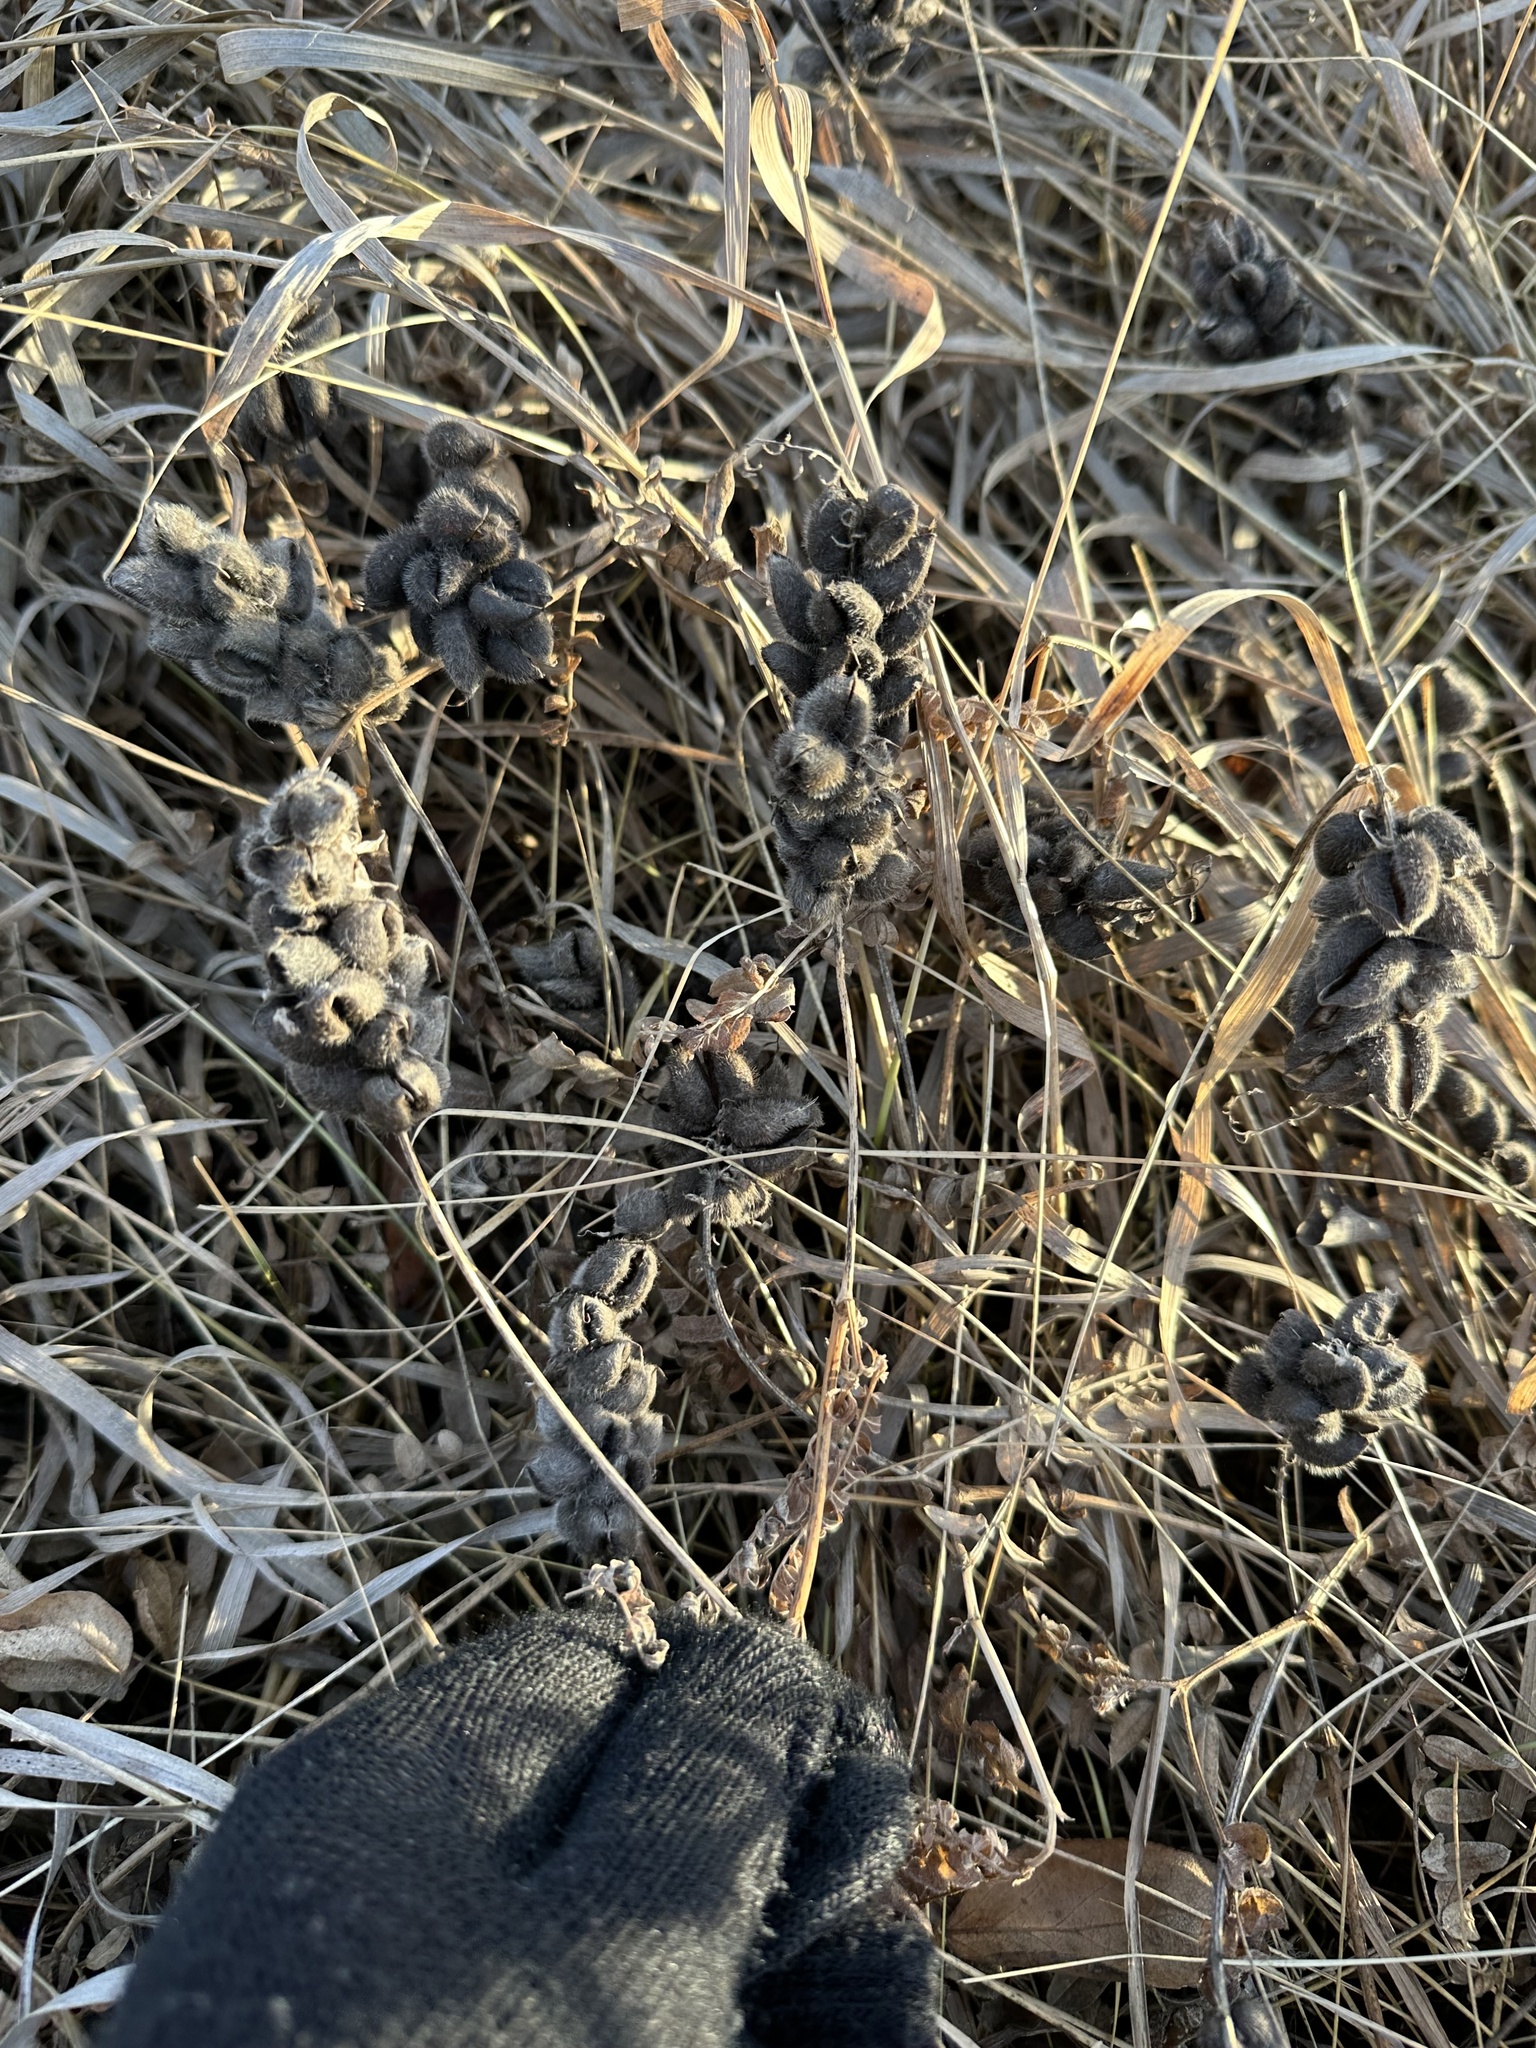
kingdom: Plantae
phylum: Tracheophyta
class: Magnoliopsida
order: Fabales
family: Fabaceae
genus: Astragalus
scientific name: Astragalus cicer
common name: Chick-pea milk-vetch
